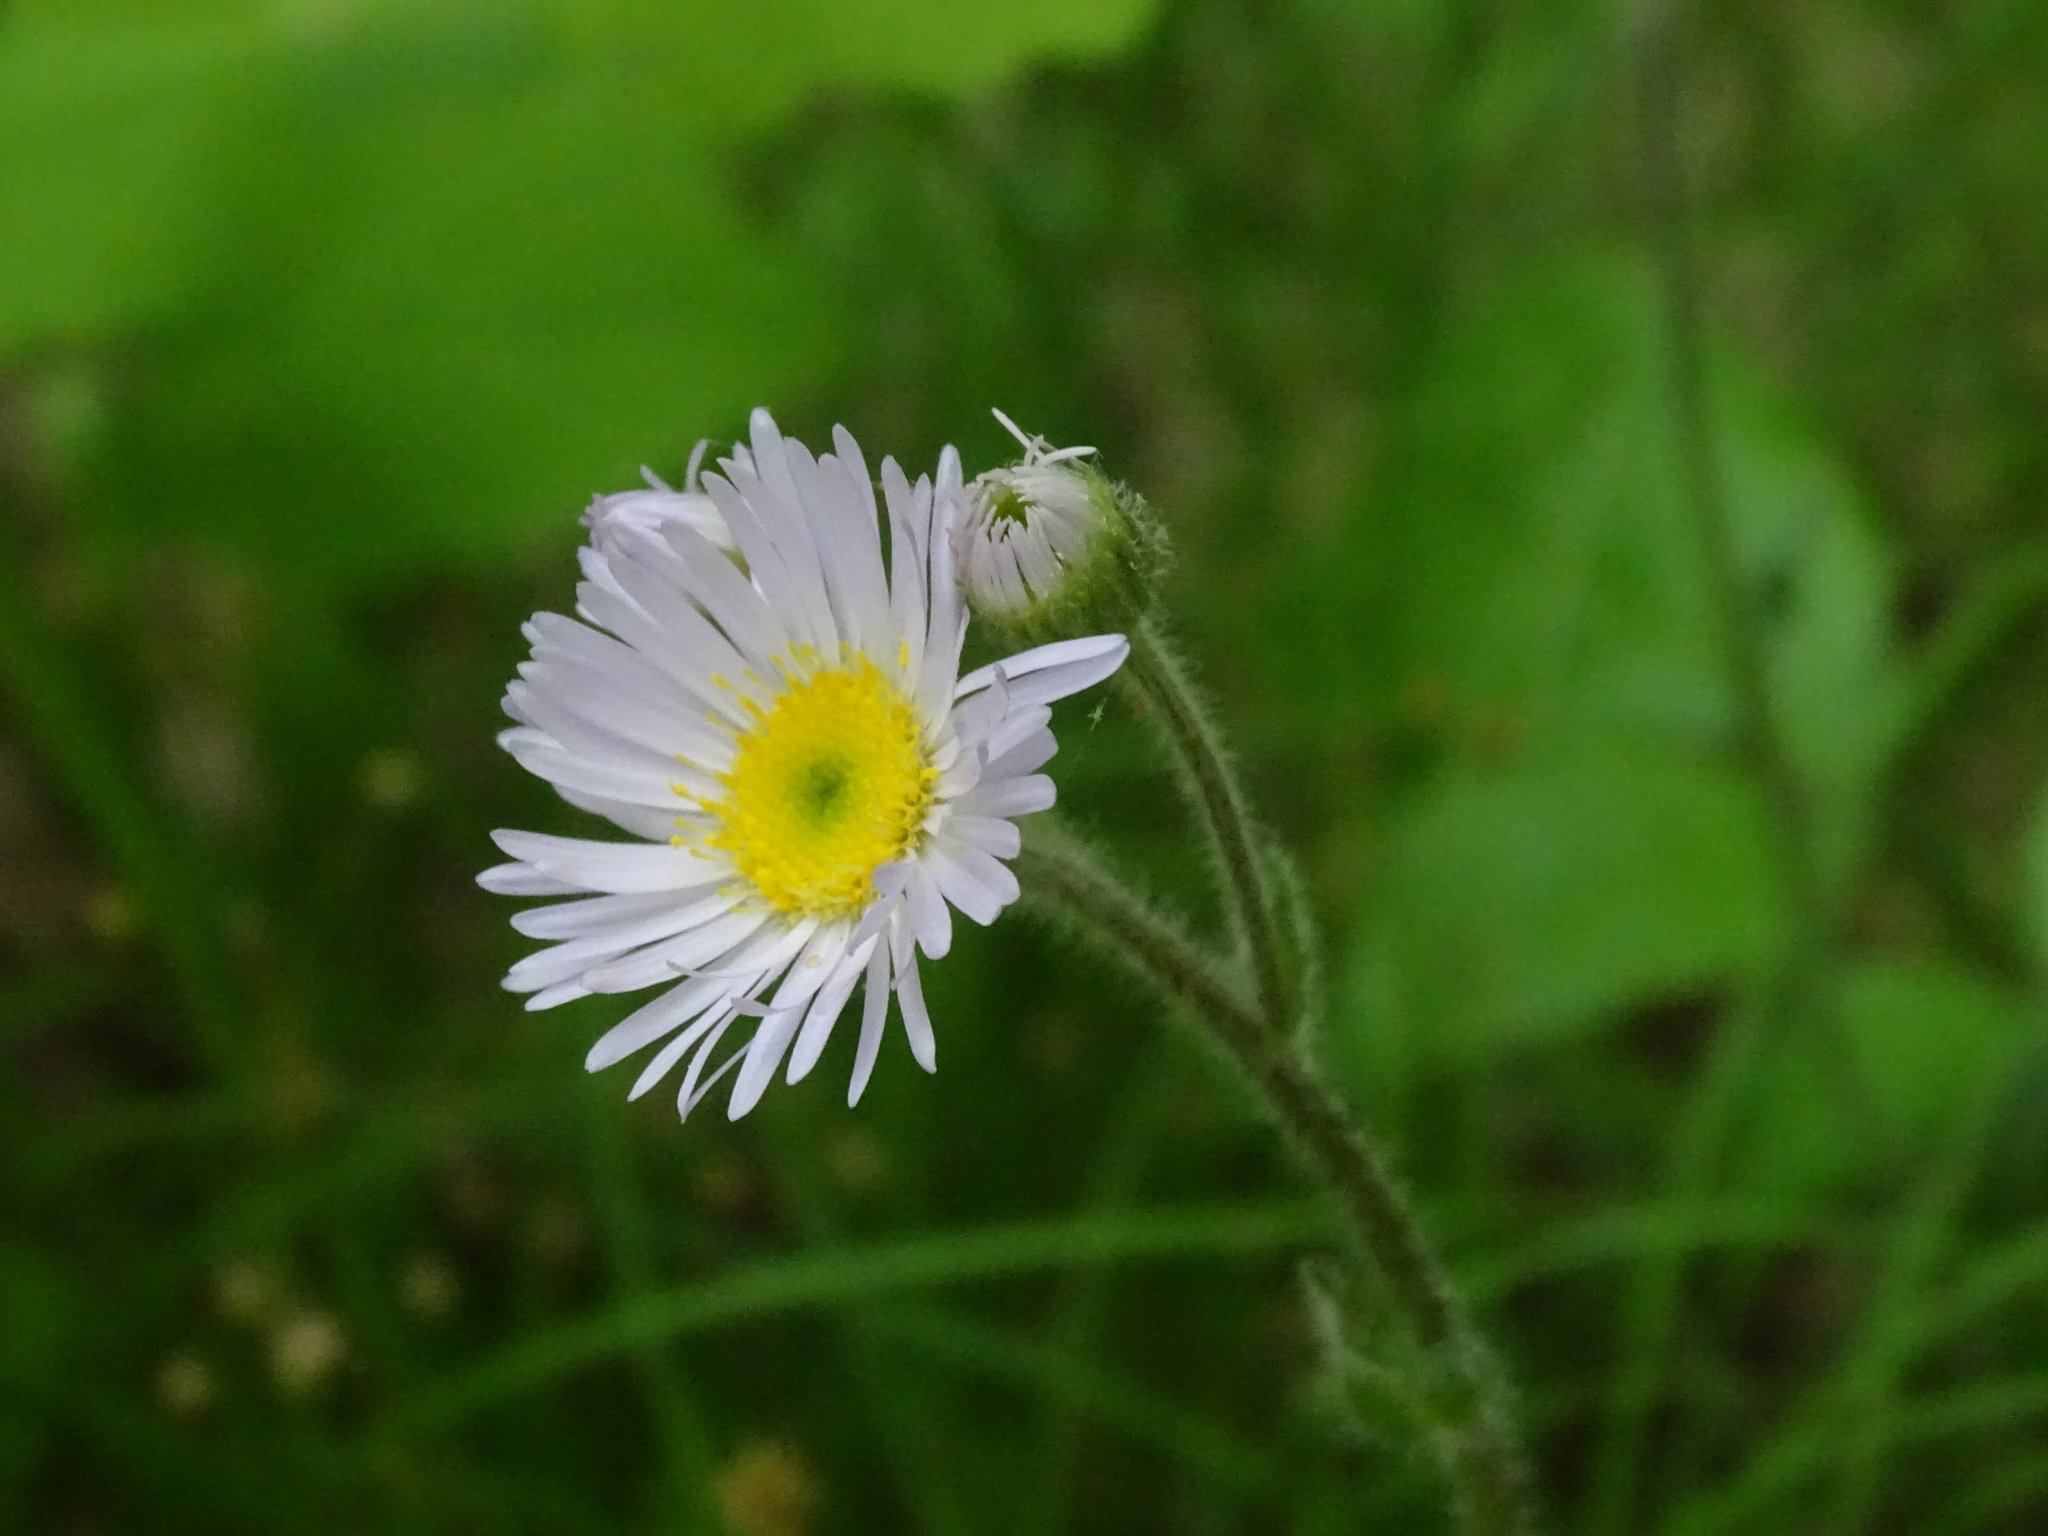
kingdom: Plantae
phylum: Tracheophyta
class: Magnoliopsida
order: Asterales
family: Asteraceae
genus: Erigeron
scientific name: Erigeron pulchellus
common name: Hairy fleabane
